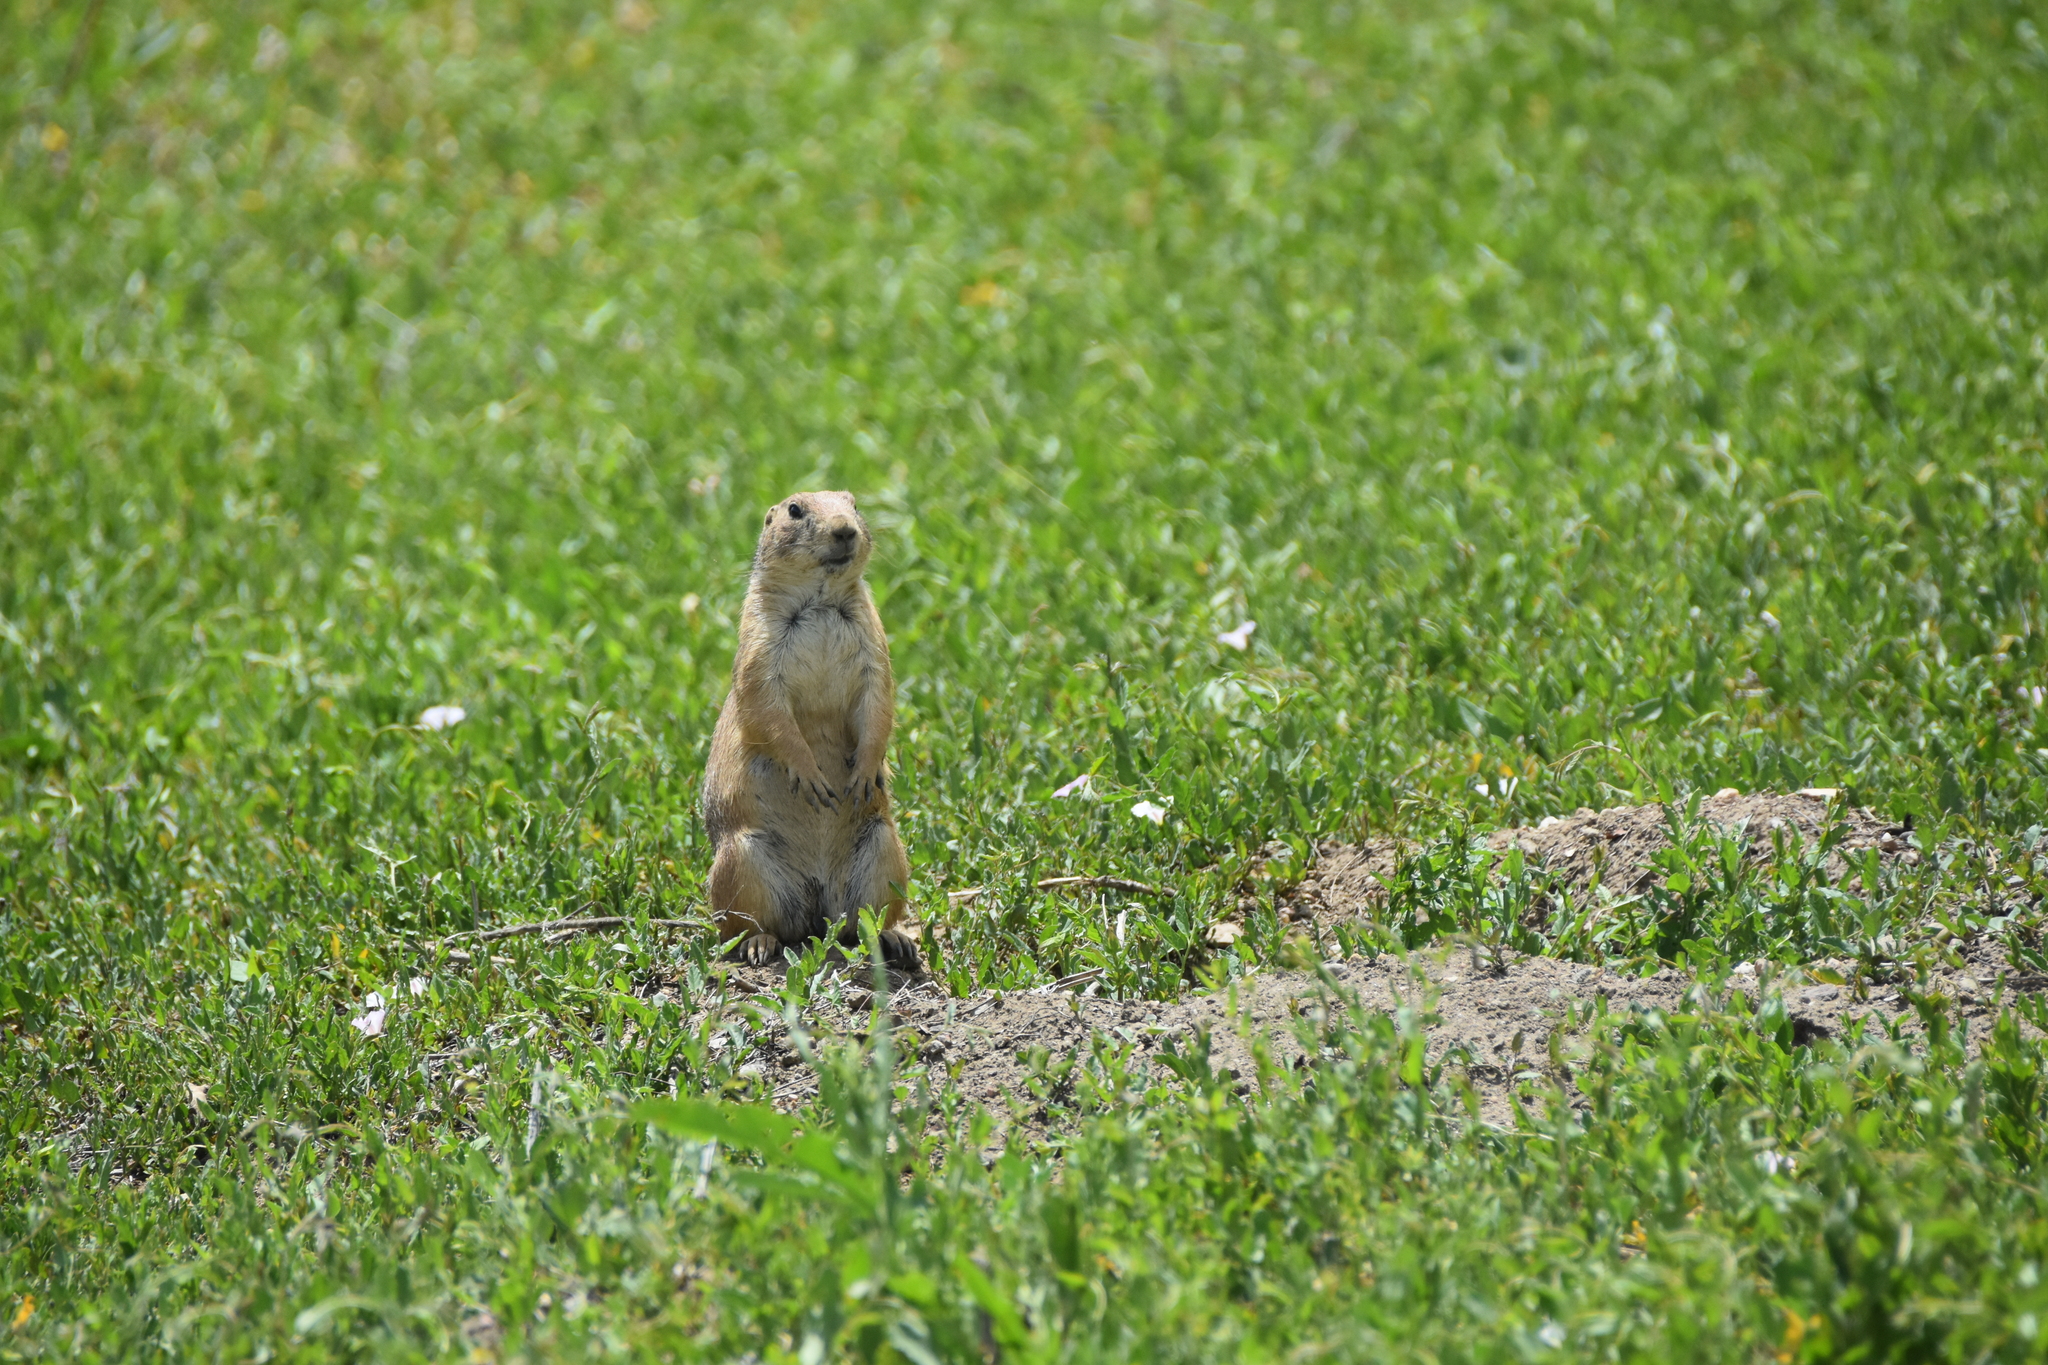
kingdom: Animalia
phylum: Chordata
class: Mammalia
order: Rodentia
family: Sciuridae
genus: Cynomys
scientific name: Cynomys ludovicianus
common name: Black-tailed prairie dog
